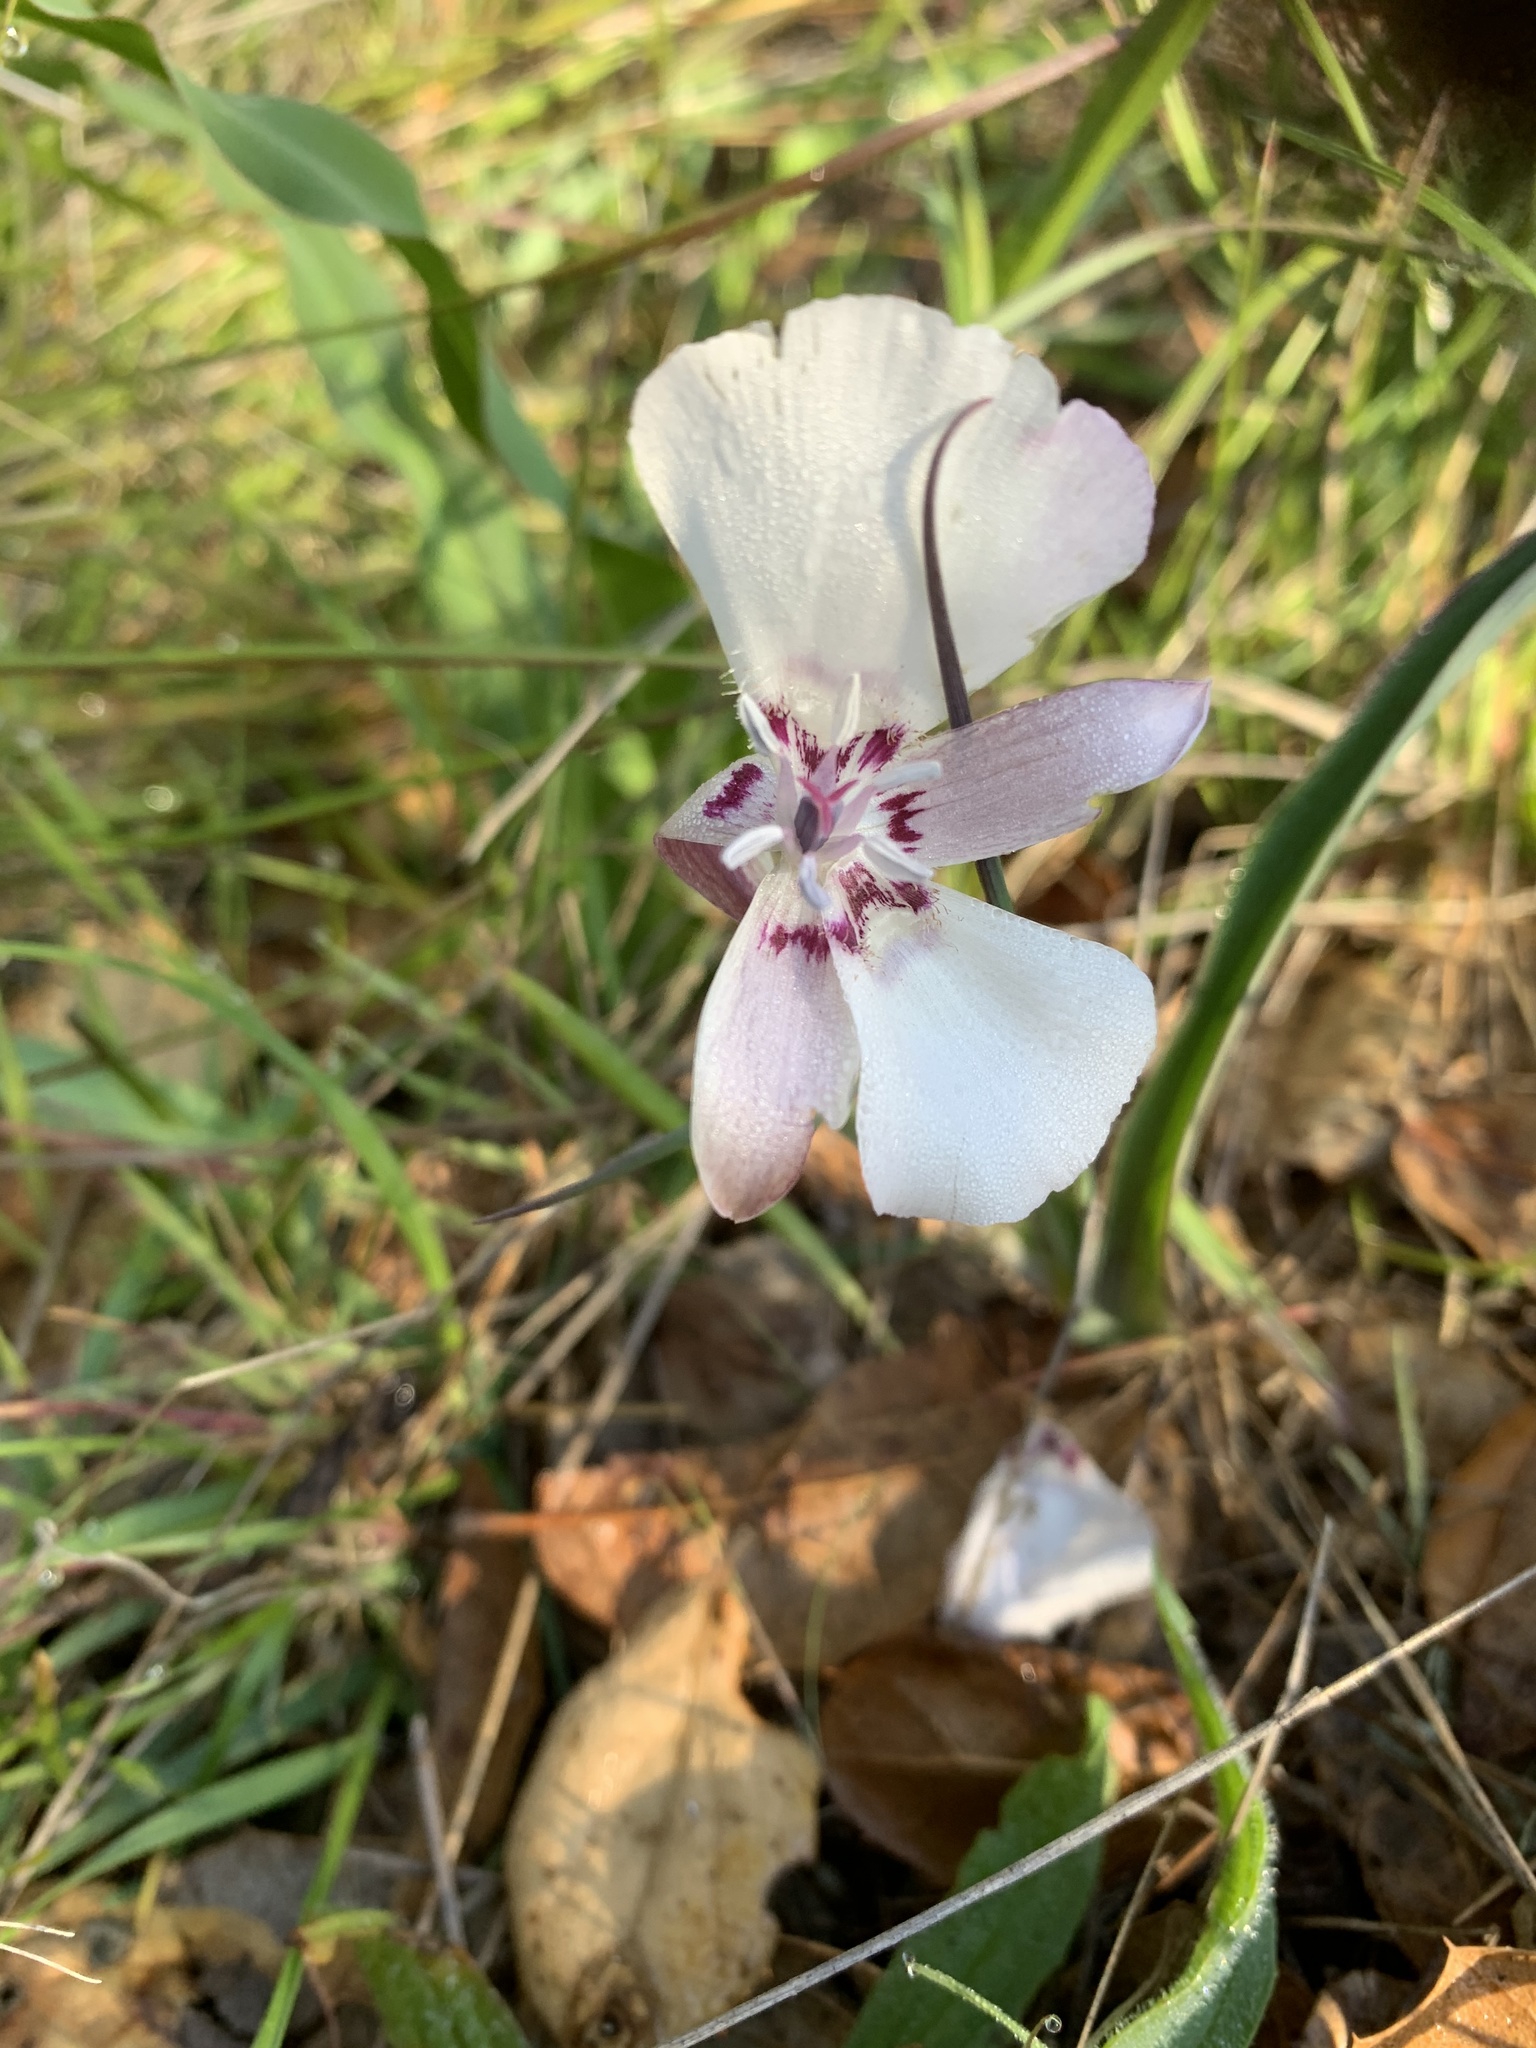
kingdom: Plantae
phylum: Tracheophyta
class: Liliopsida
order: Liliales
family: Liliaceae
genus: Calochortus
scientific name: Calochortus umbellatus
